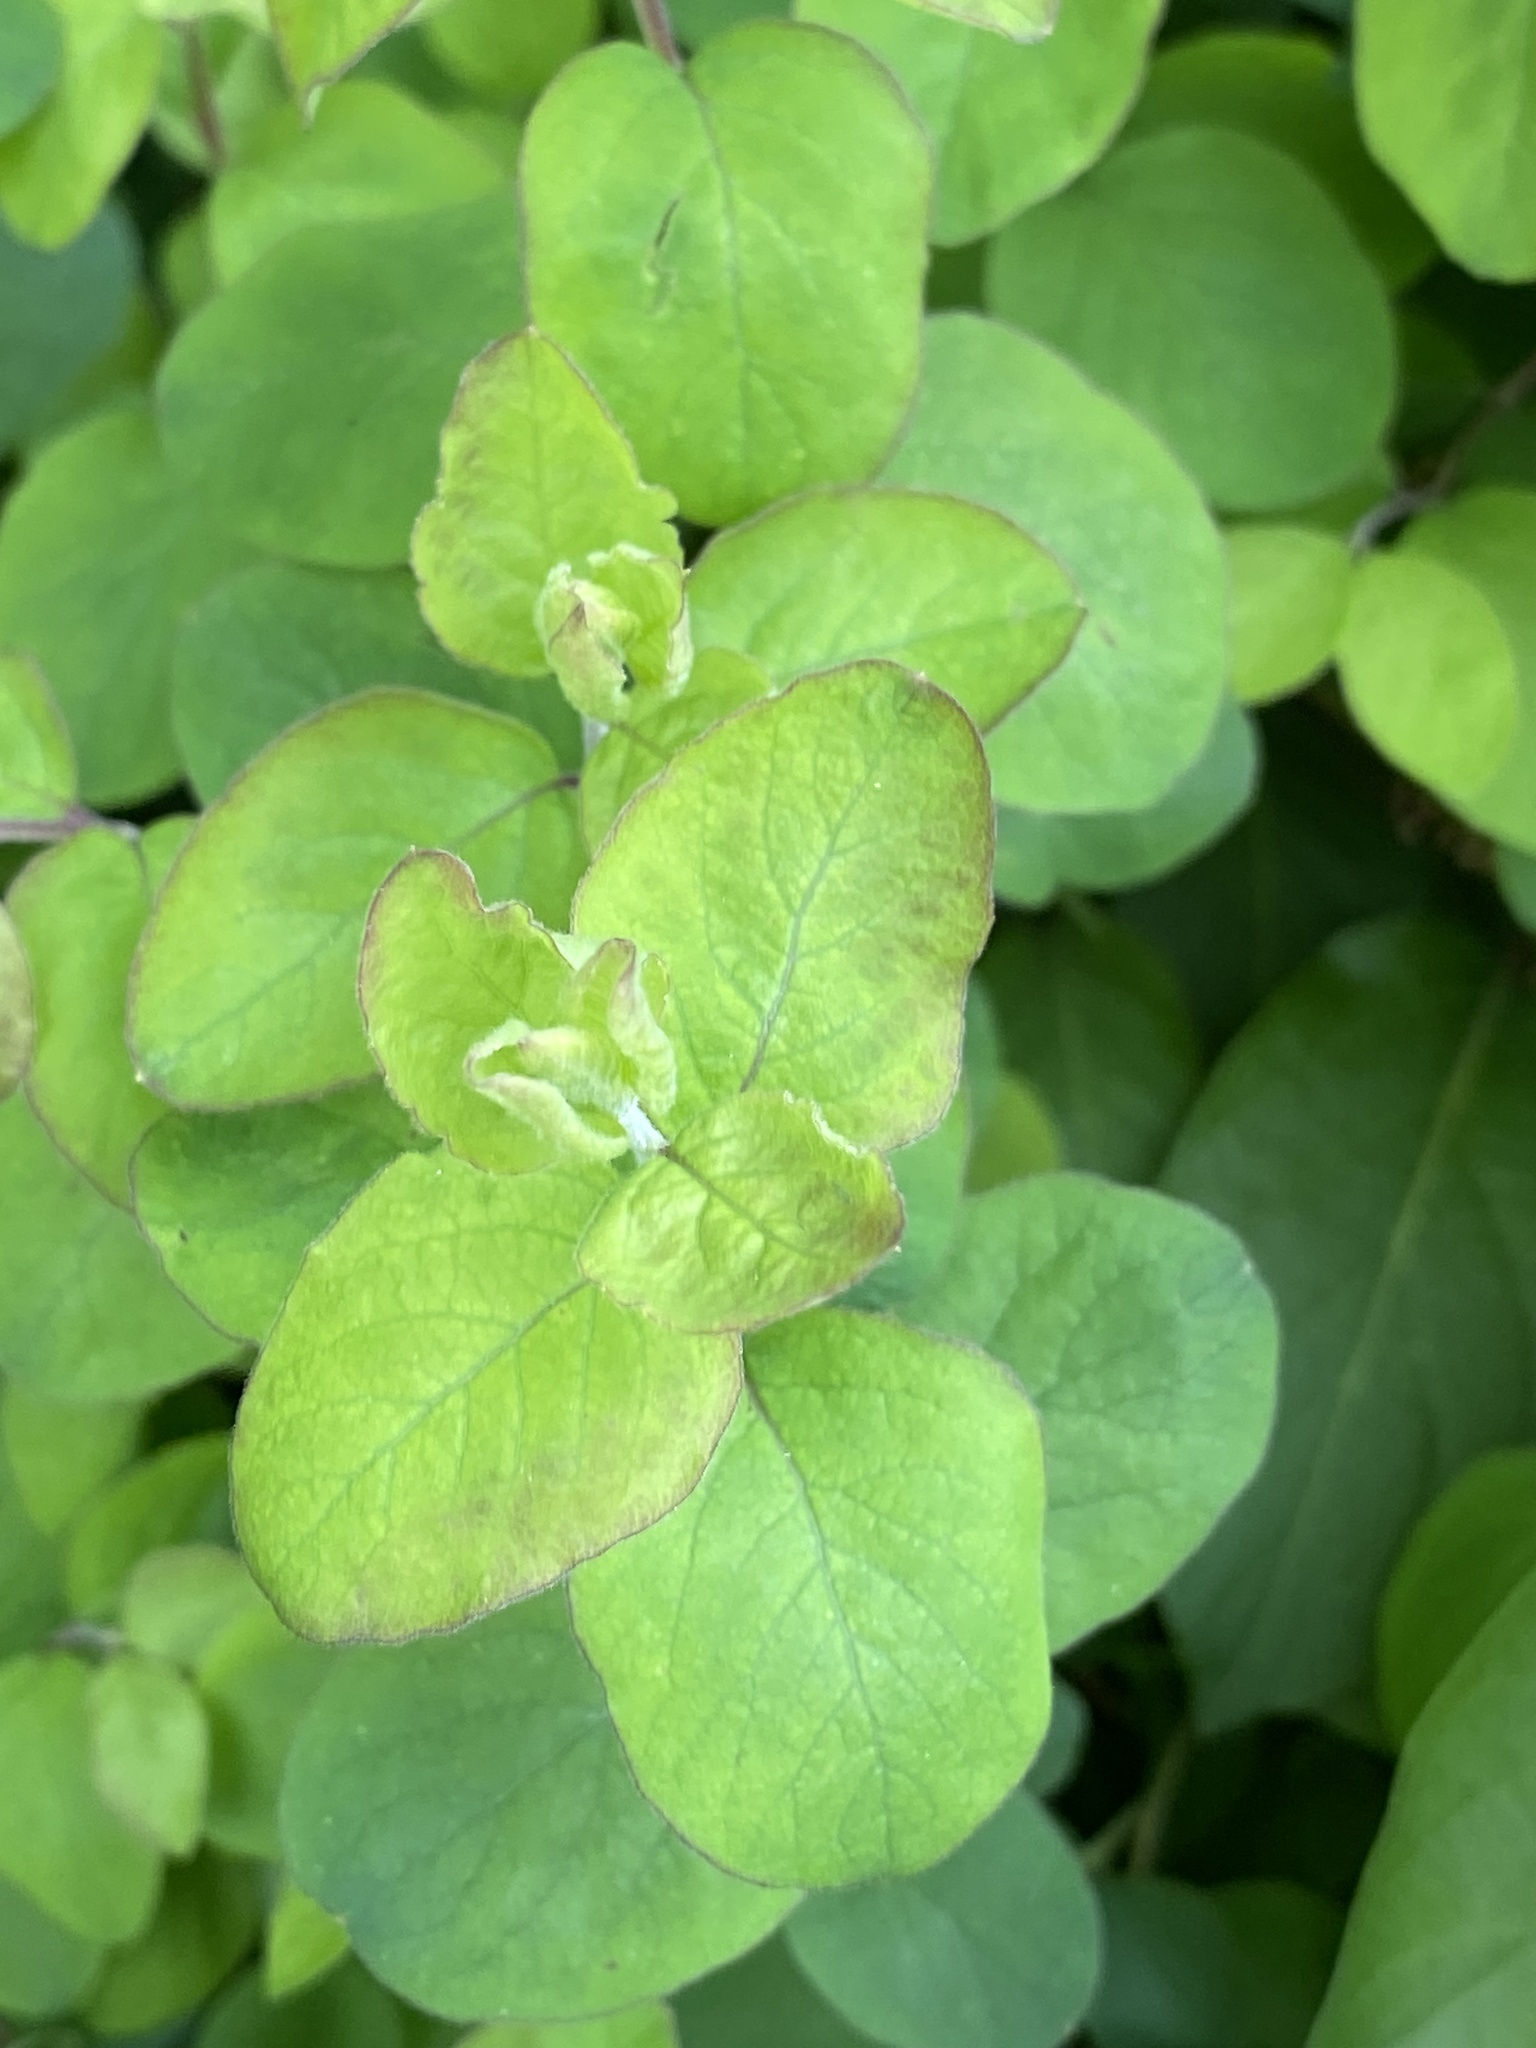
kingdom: Plantae
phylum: Tracheophyta
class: Magnoliopsida
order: Dipsacales
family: Caprifoliaceae
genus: Symphoricarpos
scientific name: Symphoricarpos orbiculatus
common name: Coralberry
